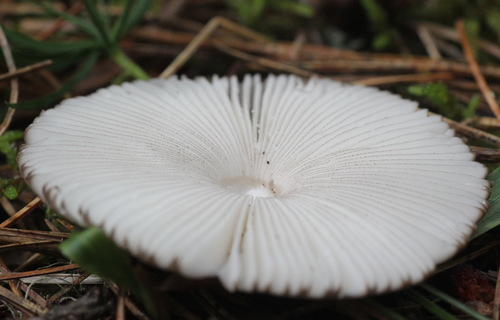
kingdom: Fungi
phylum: Basidiomycota
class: Agaricomycetes
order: Agaricales
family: Amanitaceae
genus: Amanita
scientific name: Amanita battarrae
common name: Banded amanita
